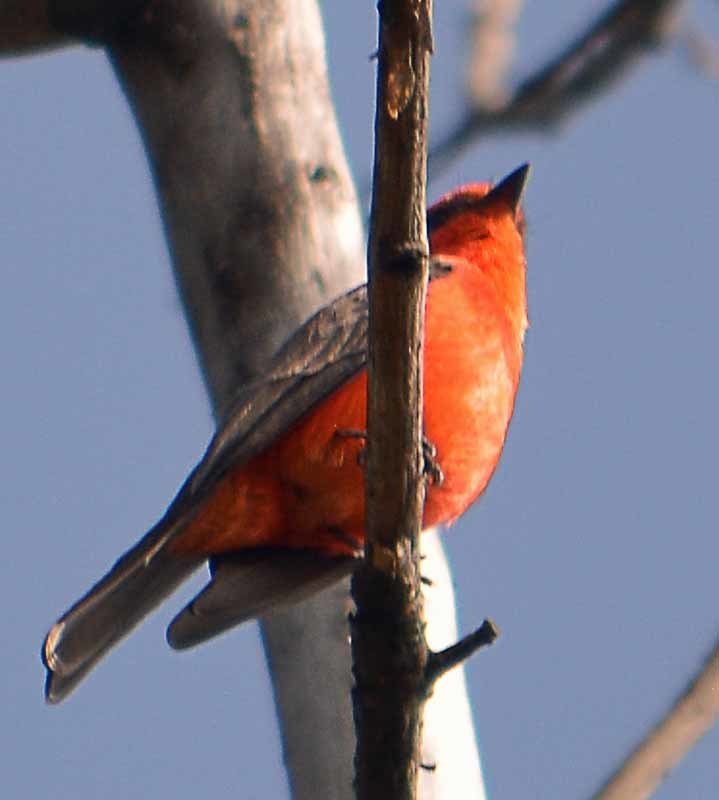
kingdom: Animalia
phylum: Chordata
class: Aves
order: Passeriformes
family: Tyrannidae
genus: Pyrocephalus
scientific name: Pyrocephalus rubinus
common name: Vermilion flycatcher
